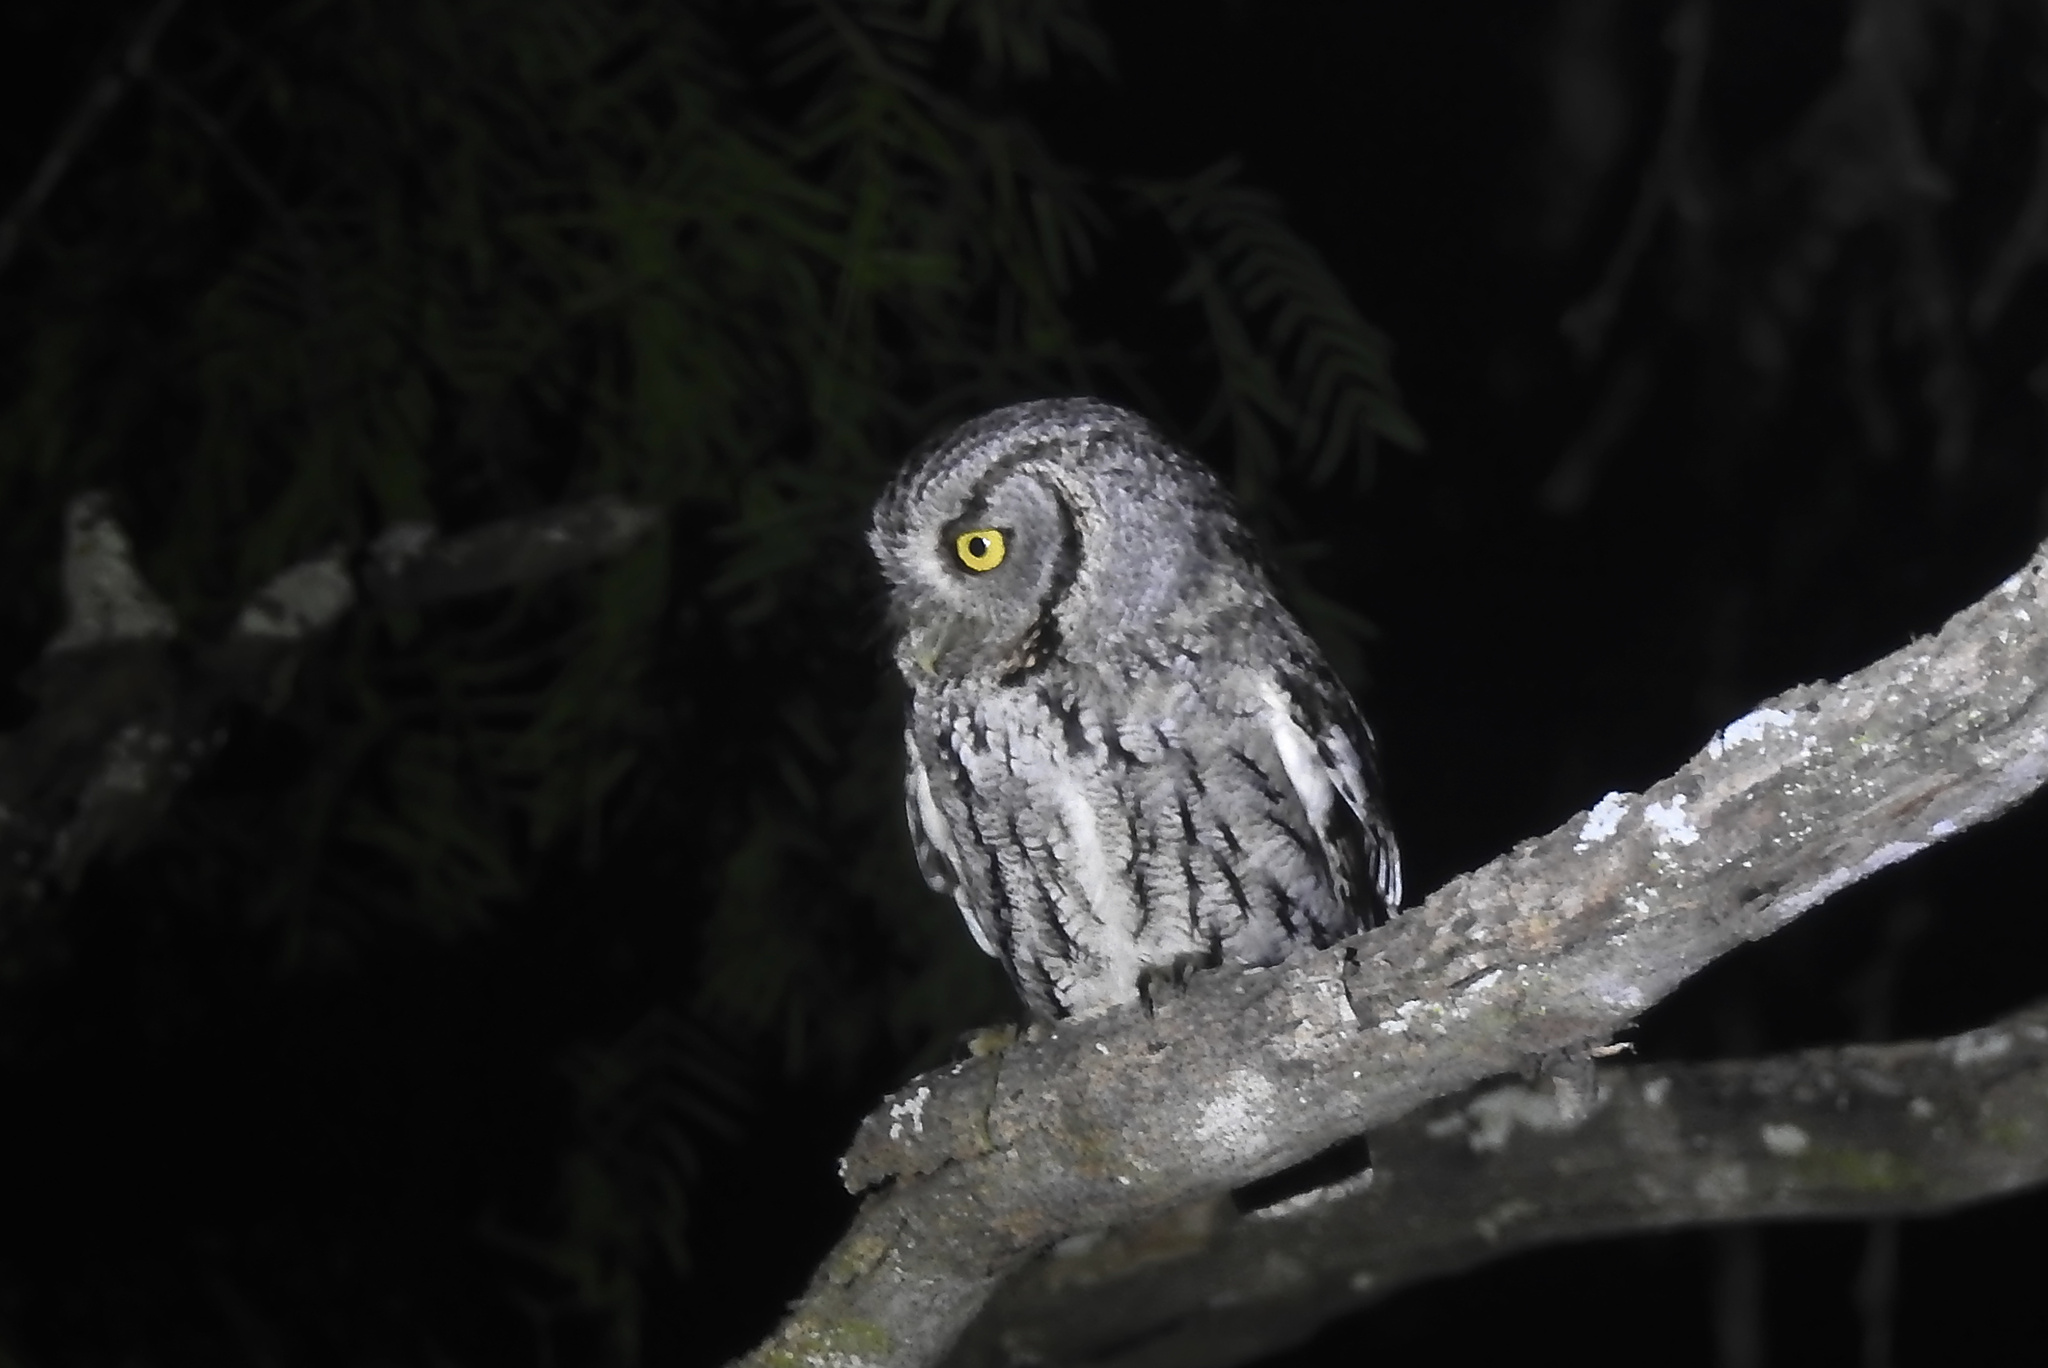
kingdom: Animalia
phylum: Chordata
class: Aves
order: Strigiformes
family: Strigidae
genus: Megascops
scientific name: Megascops asio
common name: Eastern screech-owl
